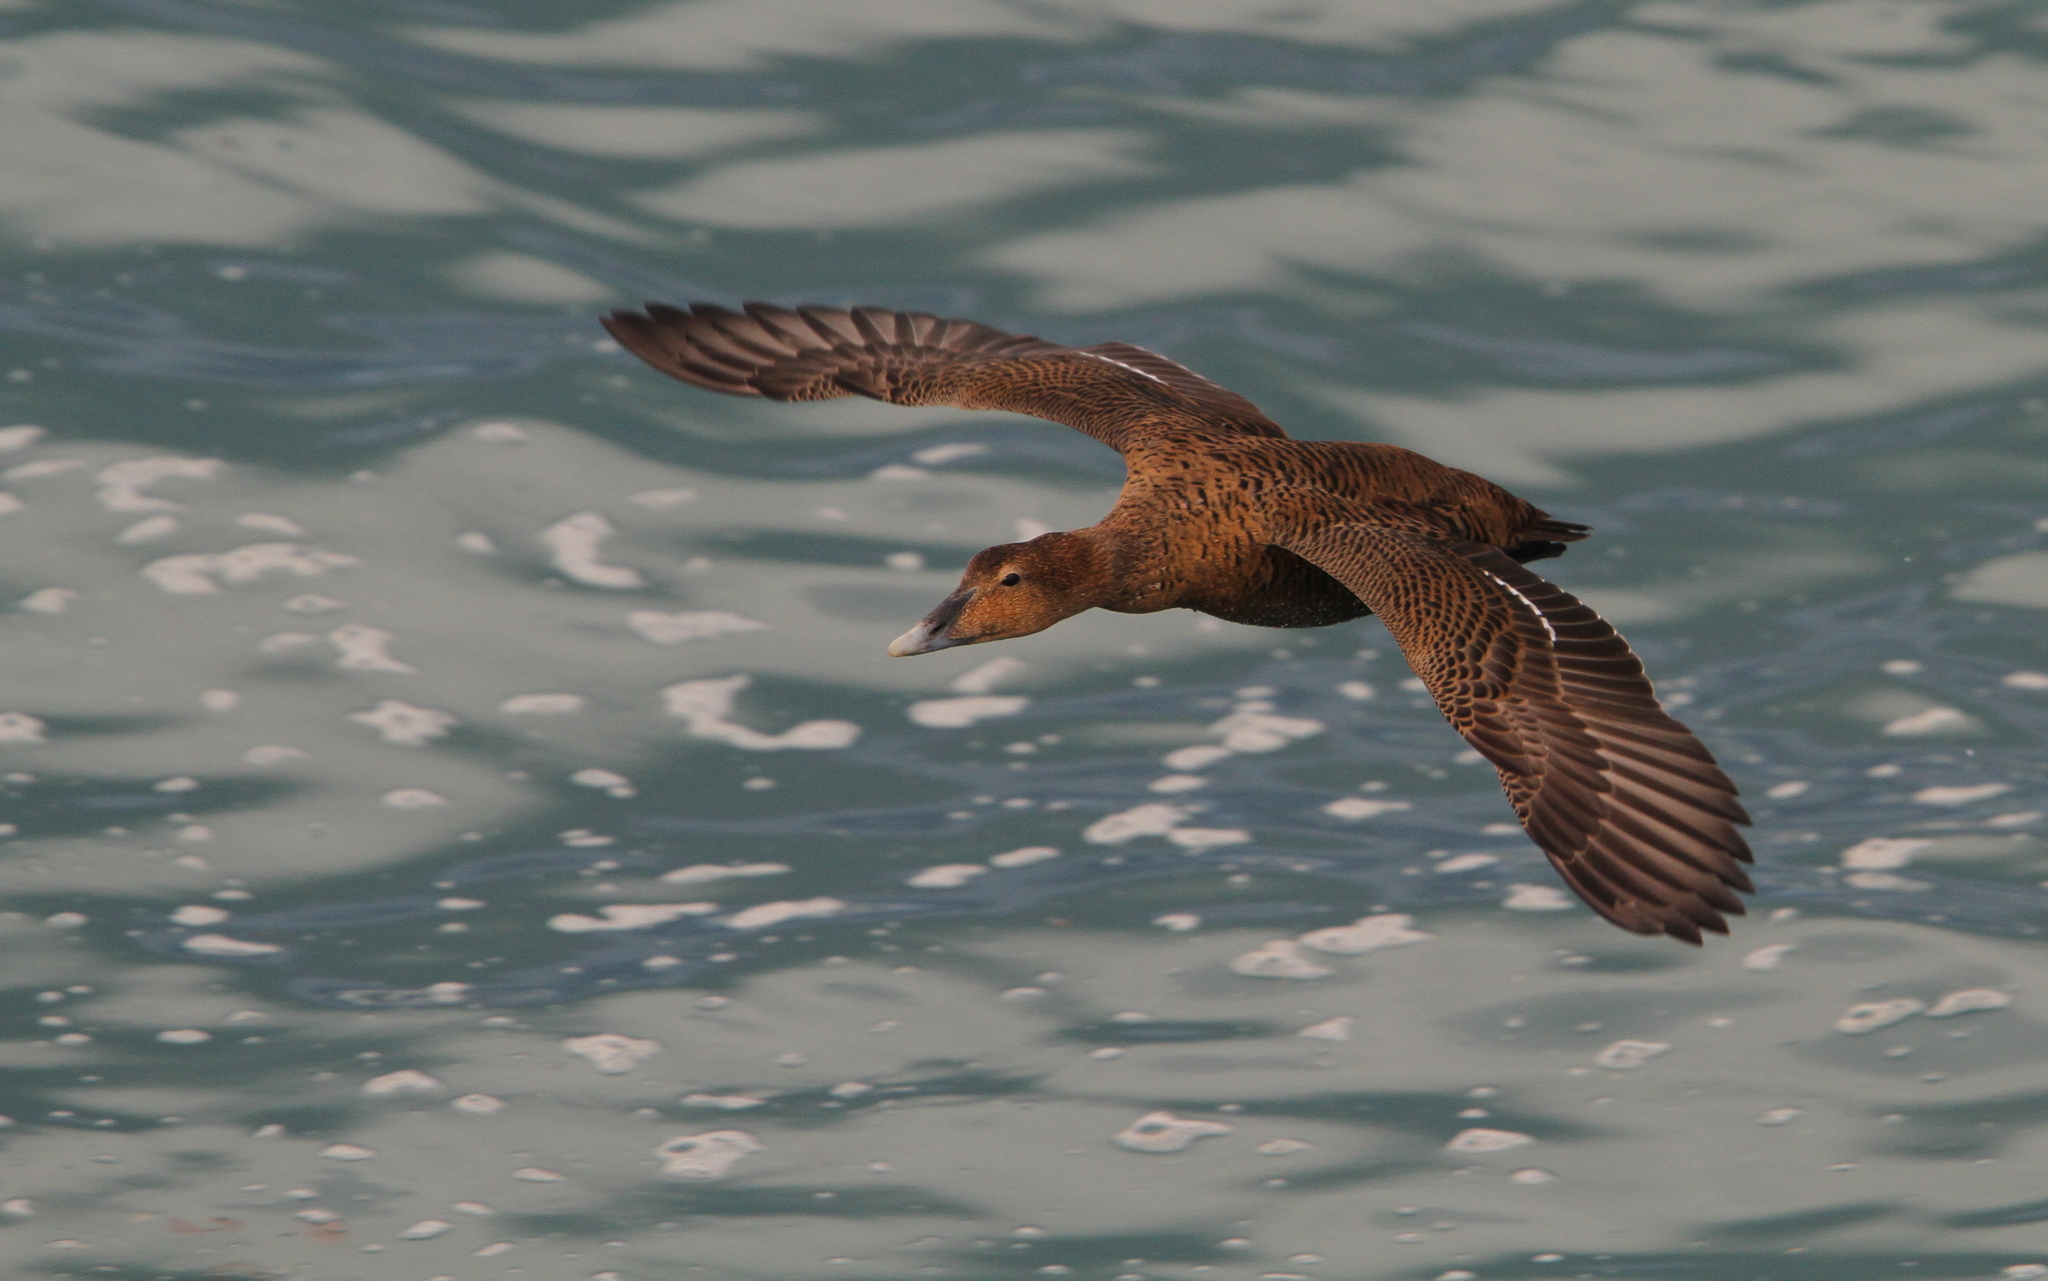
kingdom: Animalia
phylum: Chordata
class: Aves
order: Anseriformes
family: Anatidae
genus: Somateria
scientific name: Somateria mollissima
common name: Common eider
